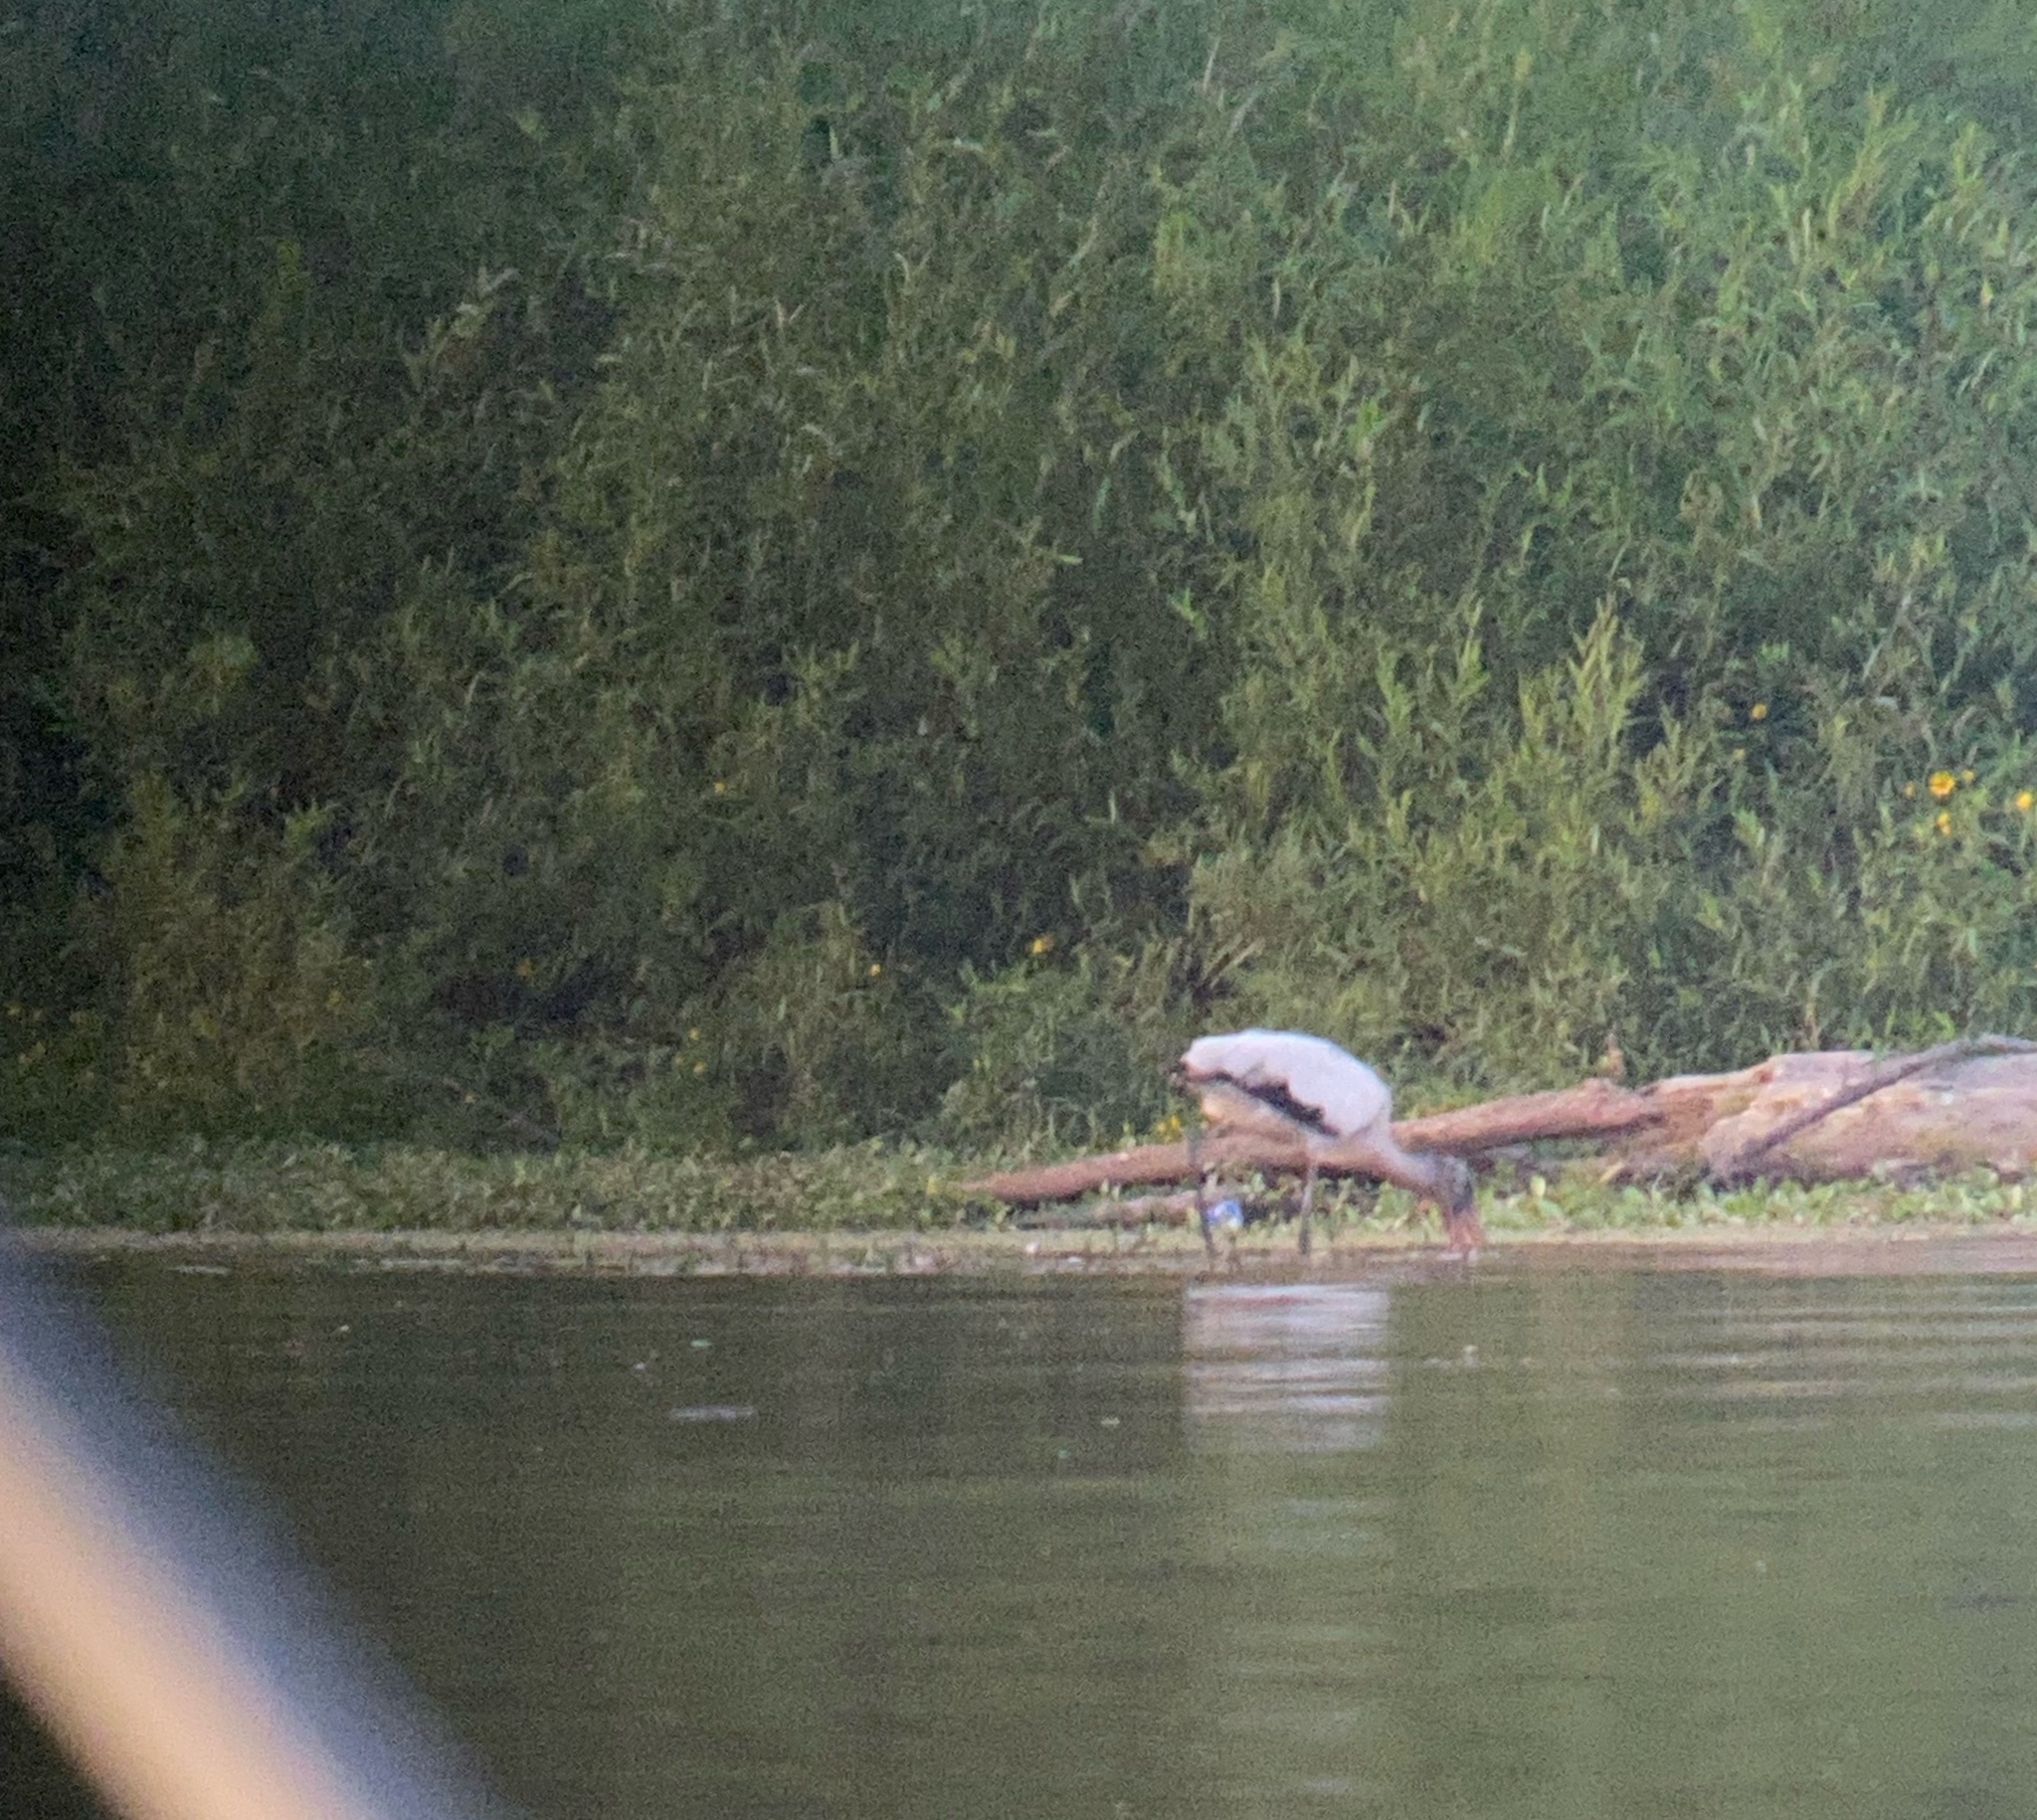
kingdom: Animalia
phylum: Chordata
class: Aves
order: Ciconiiformes
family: Ciconiidae
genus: Mycteria
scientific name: Mycteria americana
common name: Wood stork
